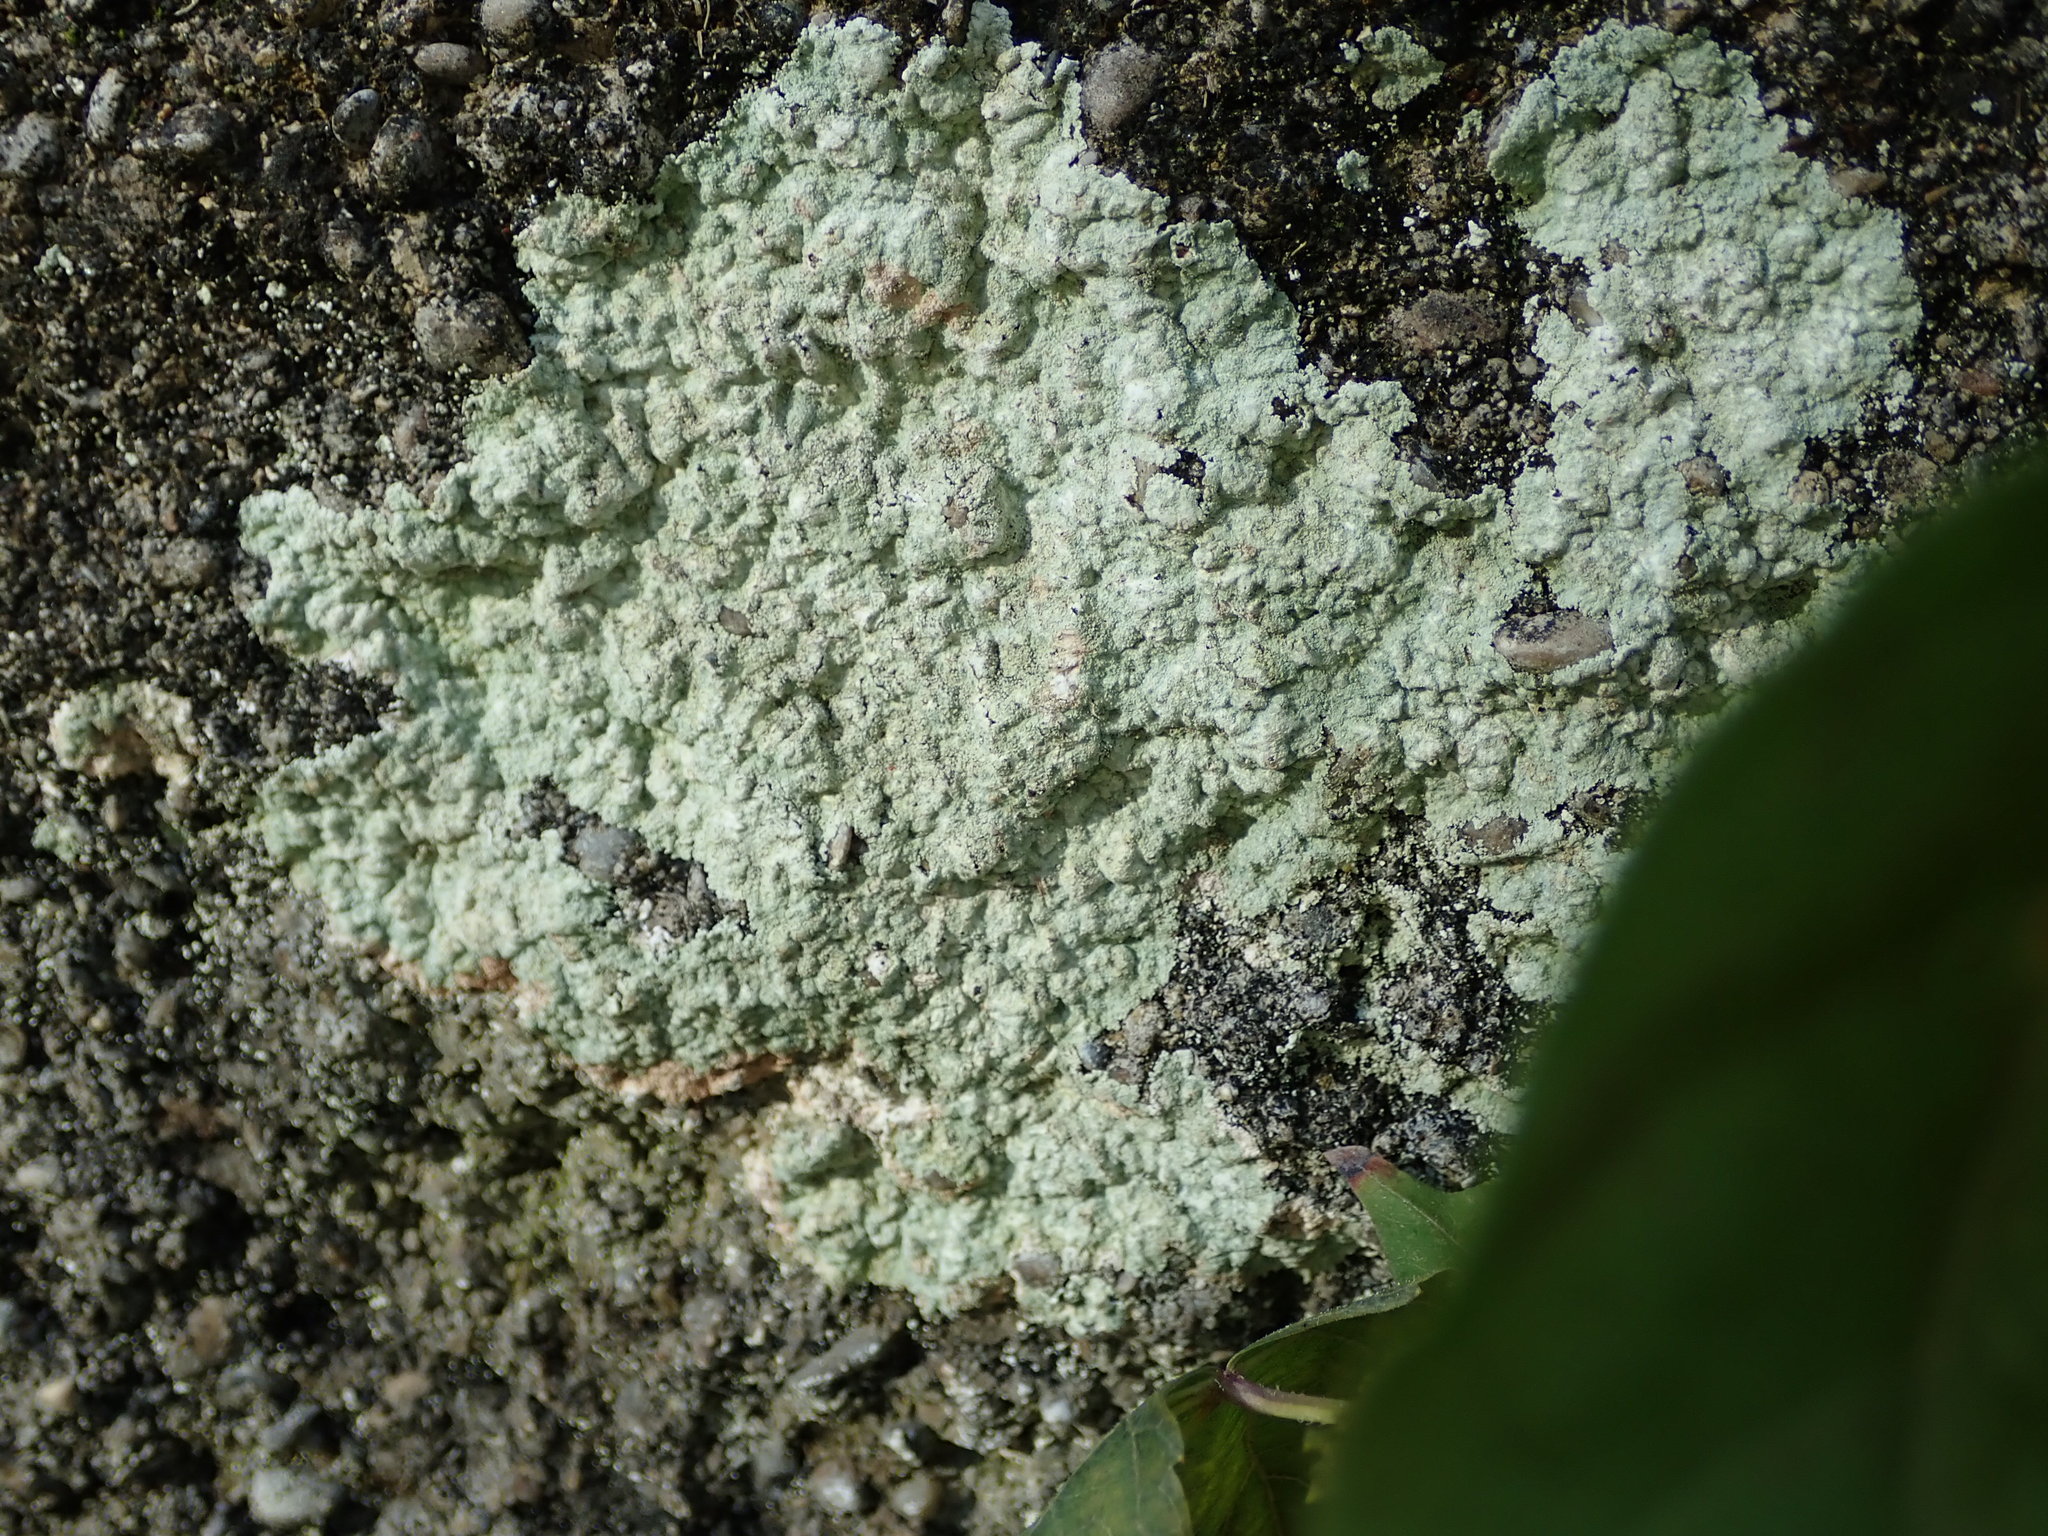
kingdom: Fungi
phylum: Ascomycota
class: Lecanoromycetes
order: Lecanorales
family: Stereocaulaceae
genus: Lepraria
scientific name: Lepraria lobificans
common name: Fluffy dust lichen
